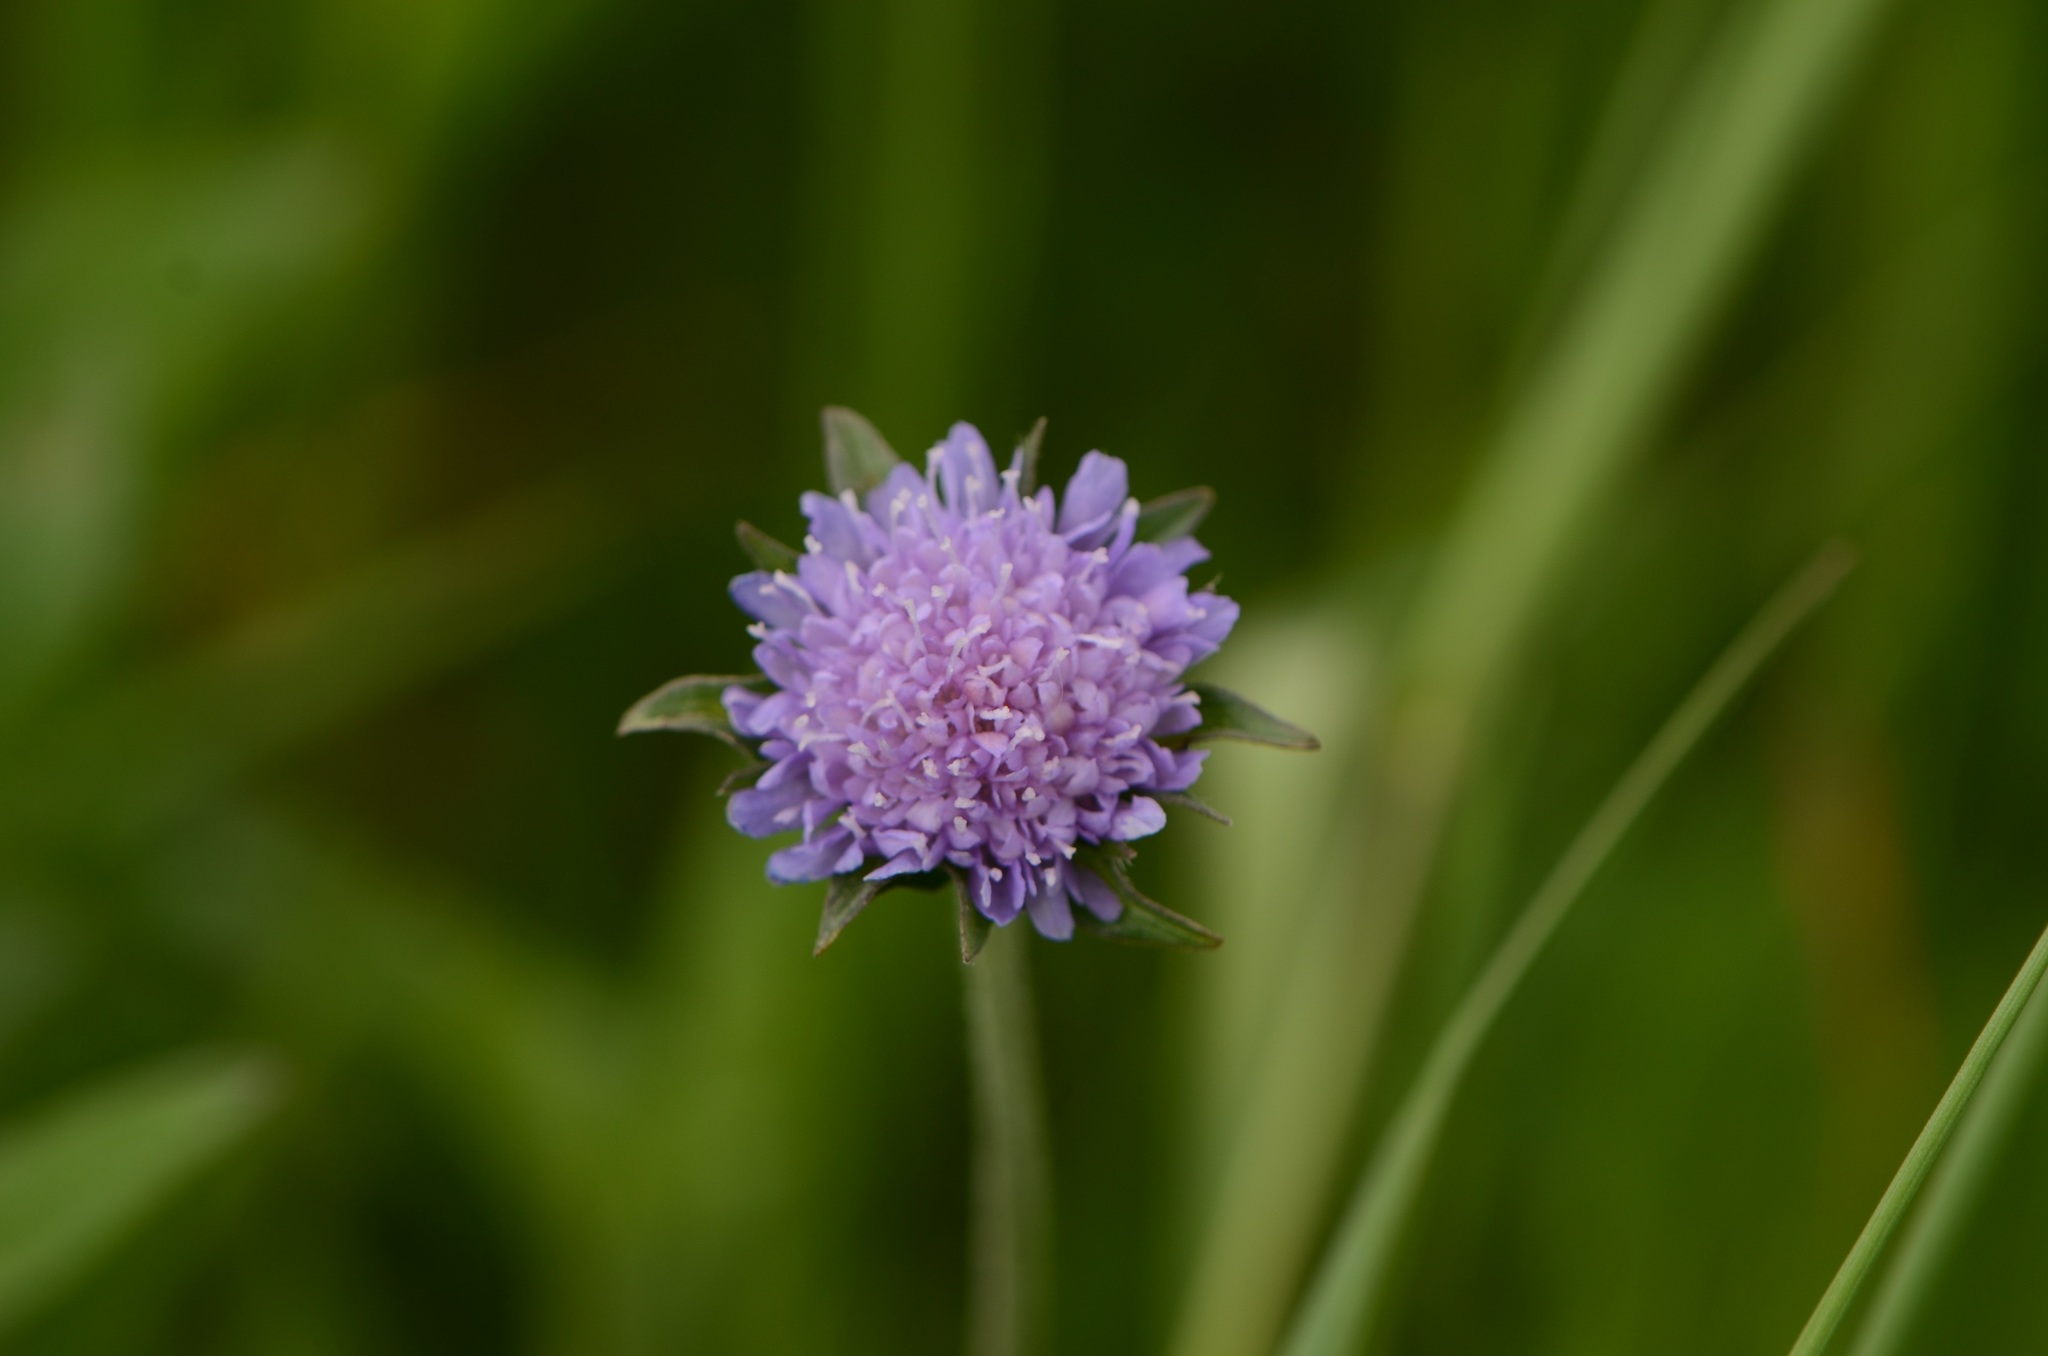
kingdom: Plantae
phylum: Tracheophyta
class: Magnoliopsida
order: Dipsacales
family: Caprifoliaceae
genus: Knautia
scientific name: Knautia arvensis
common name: Field scabiosa
